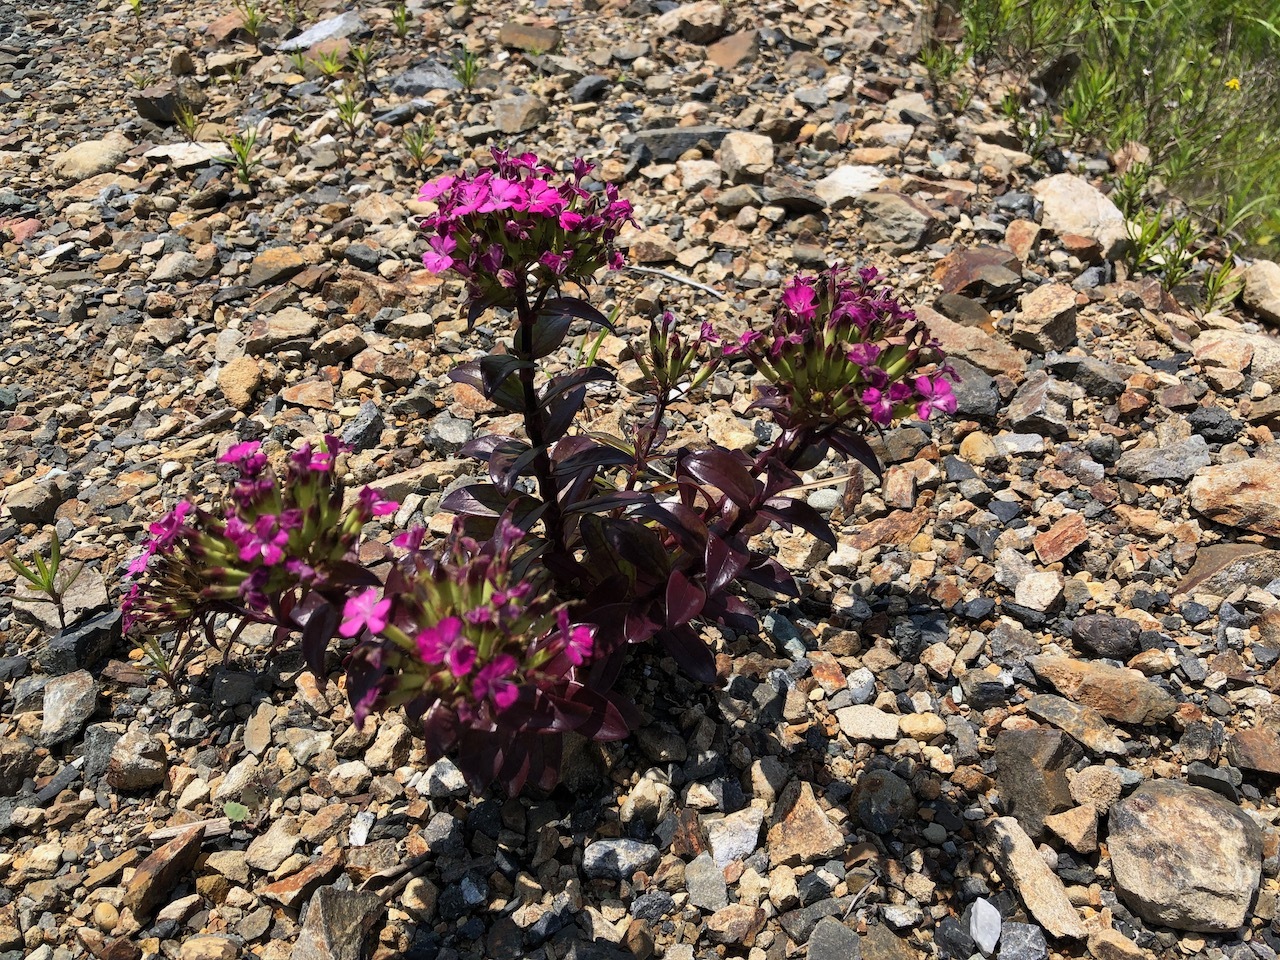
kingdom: Plantae
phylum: Tracheophyta
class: Magnoliopsida
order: Caryophyllales
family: Caryophyllaceae
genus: Dianthus
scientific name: Dianthus japonicus
